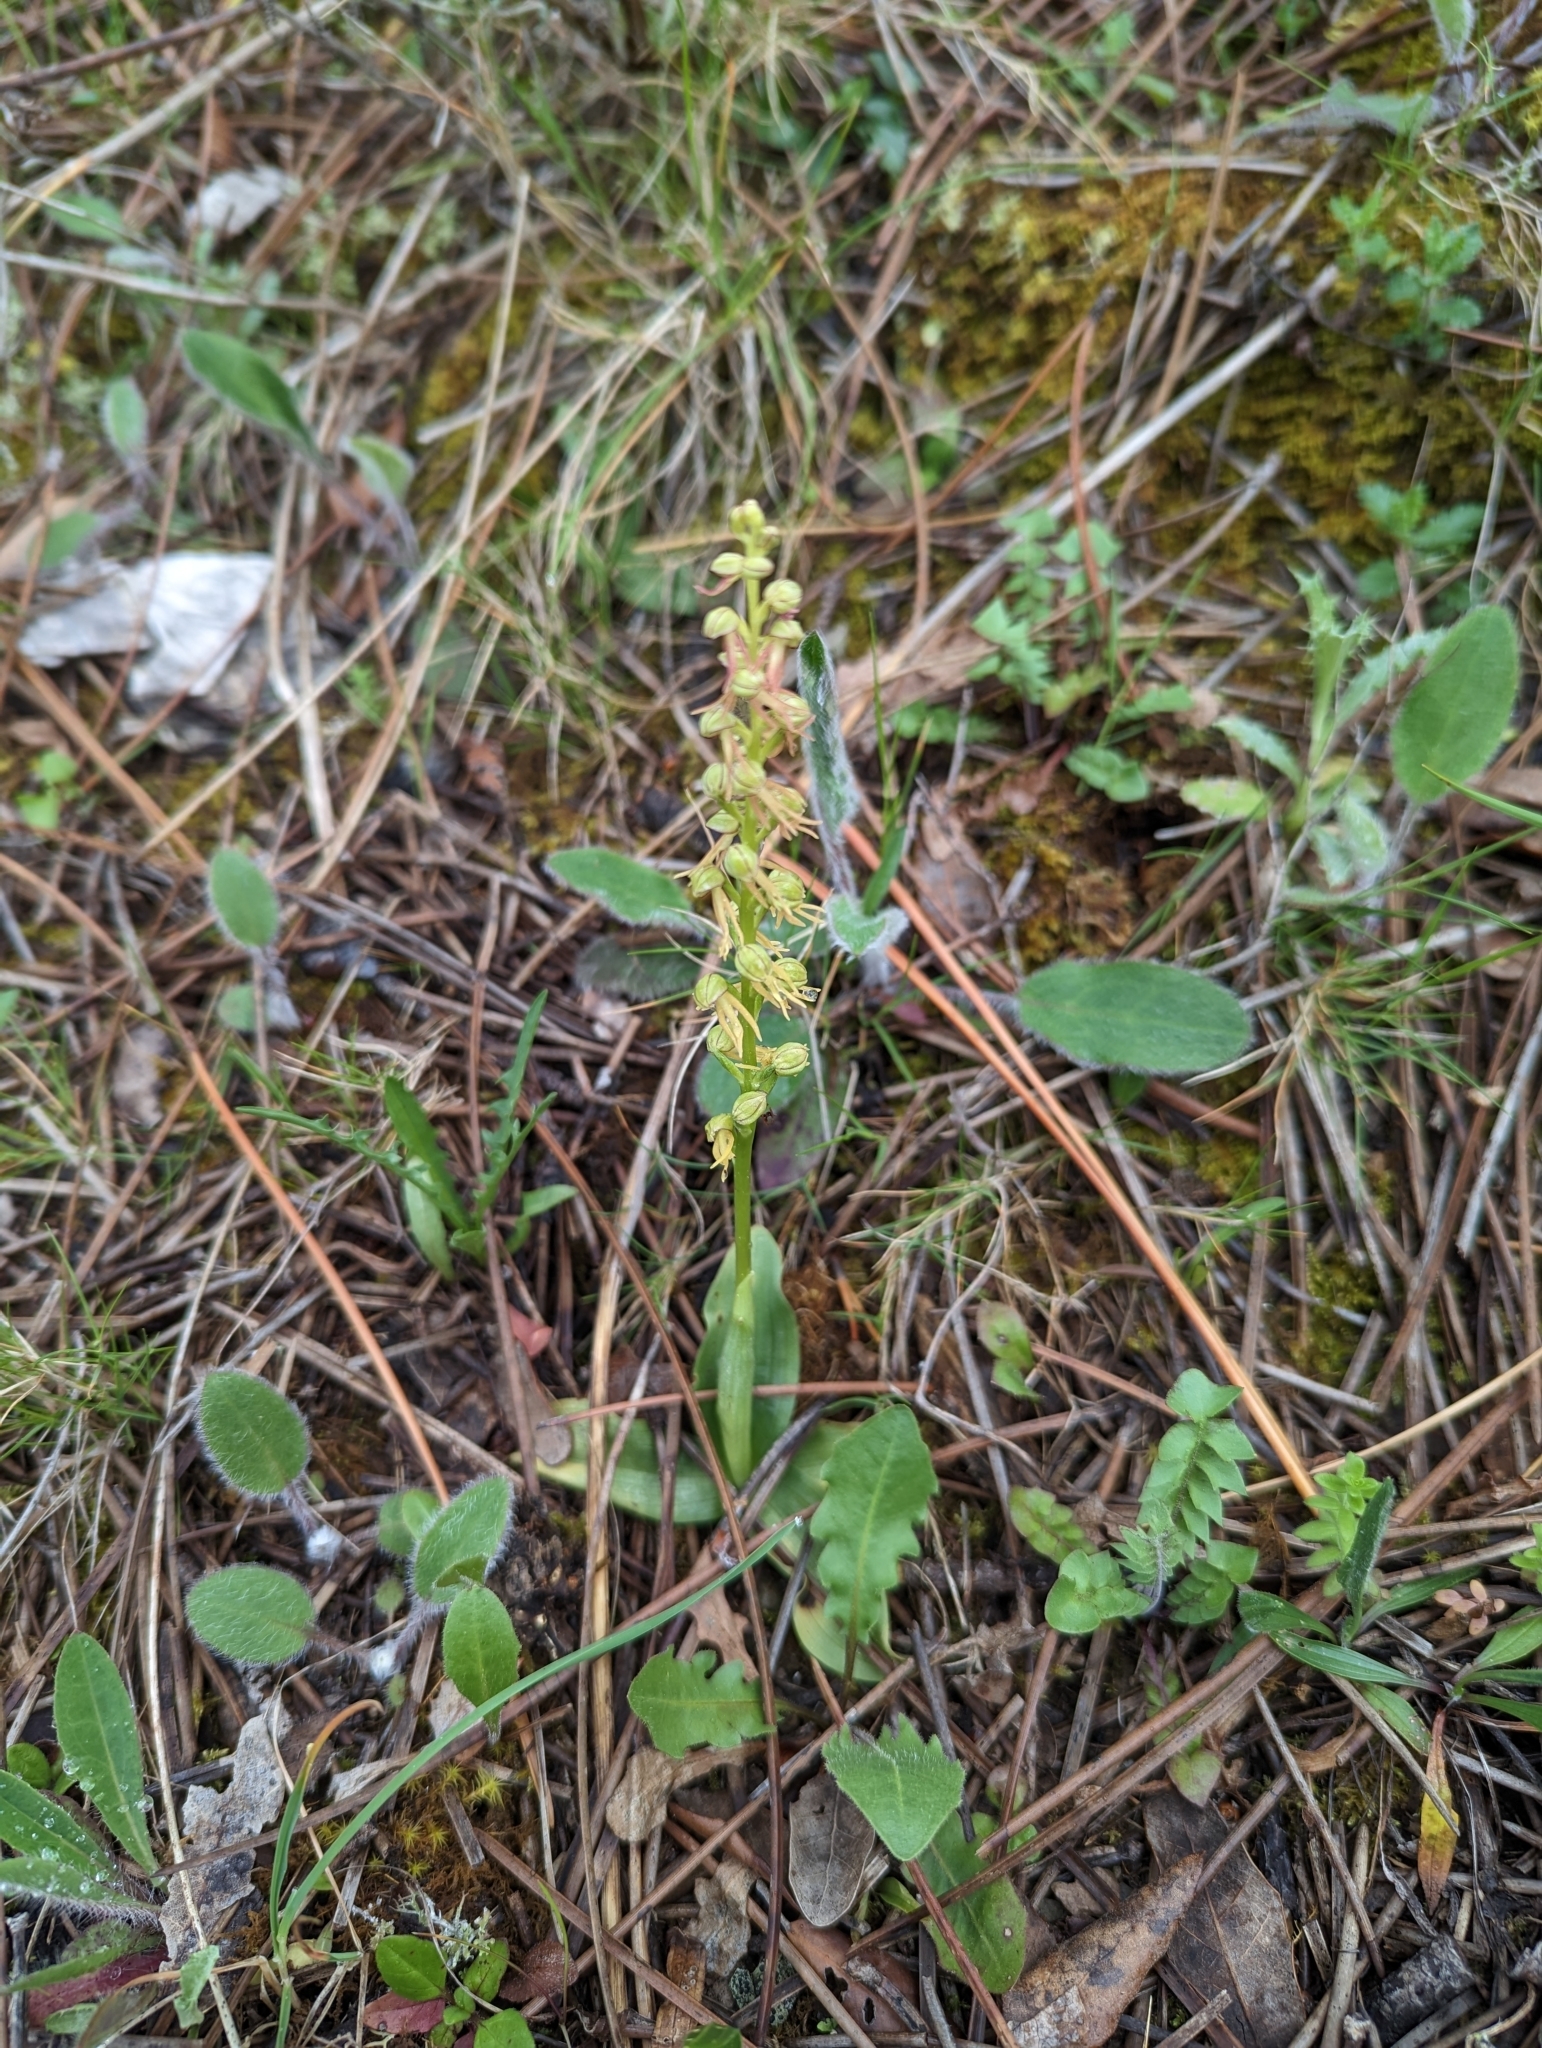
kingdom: Plantae
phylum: Tracheophyta
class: Liliopsida
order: Asparagales
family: Orchidaceae
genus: Orchis
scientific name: Orchis anthropophora
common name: Man orchid
